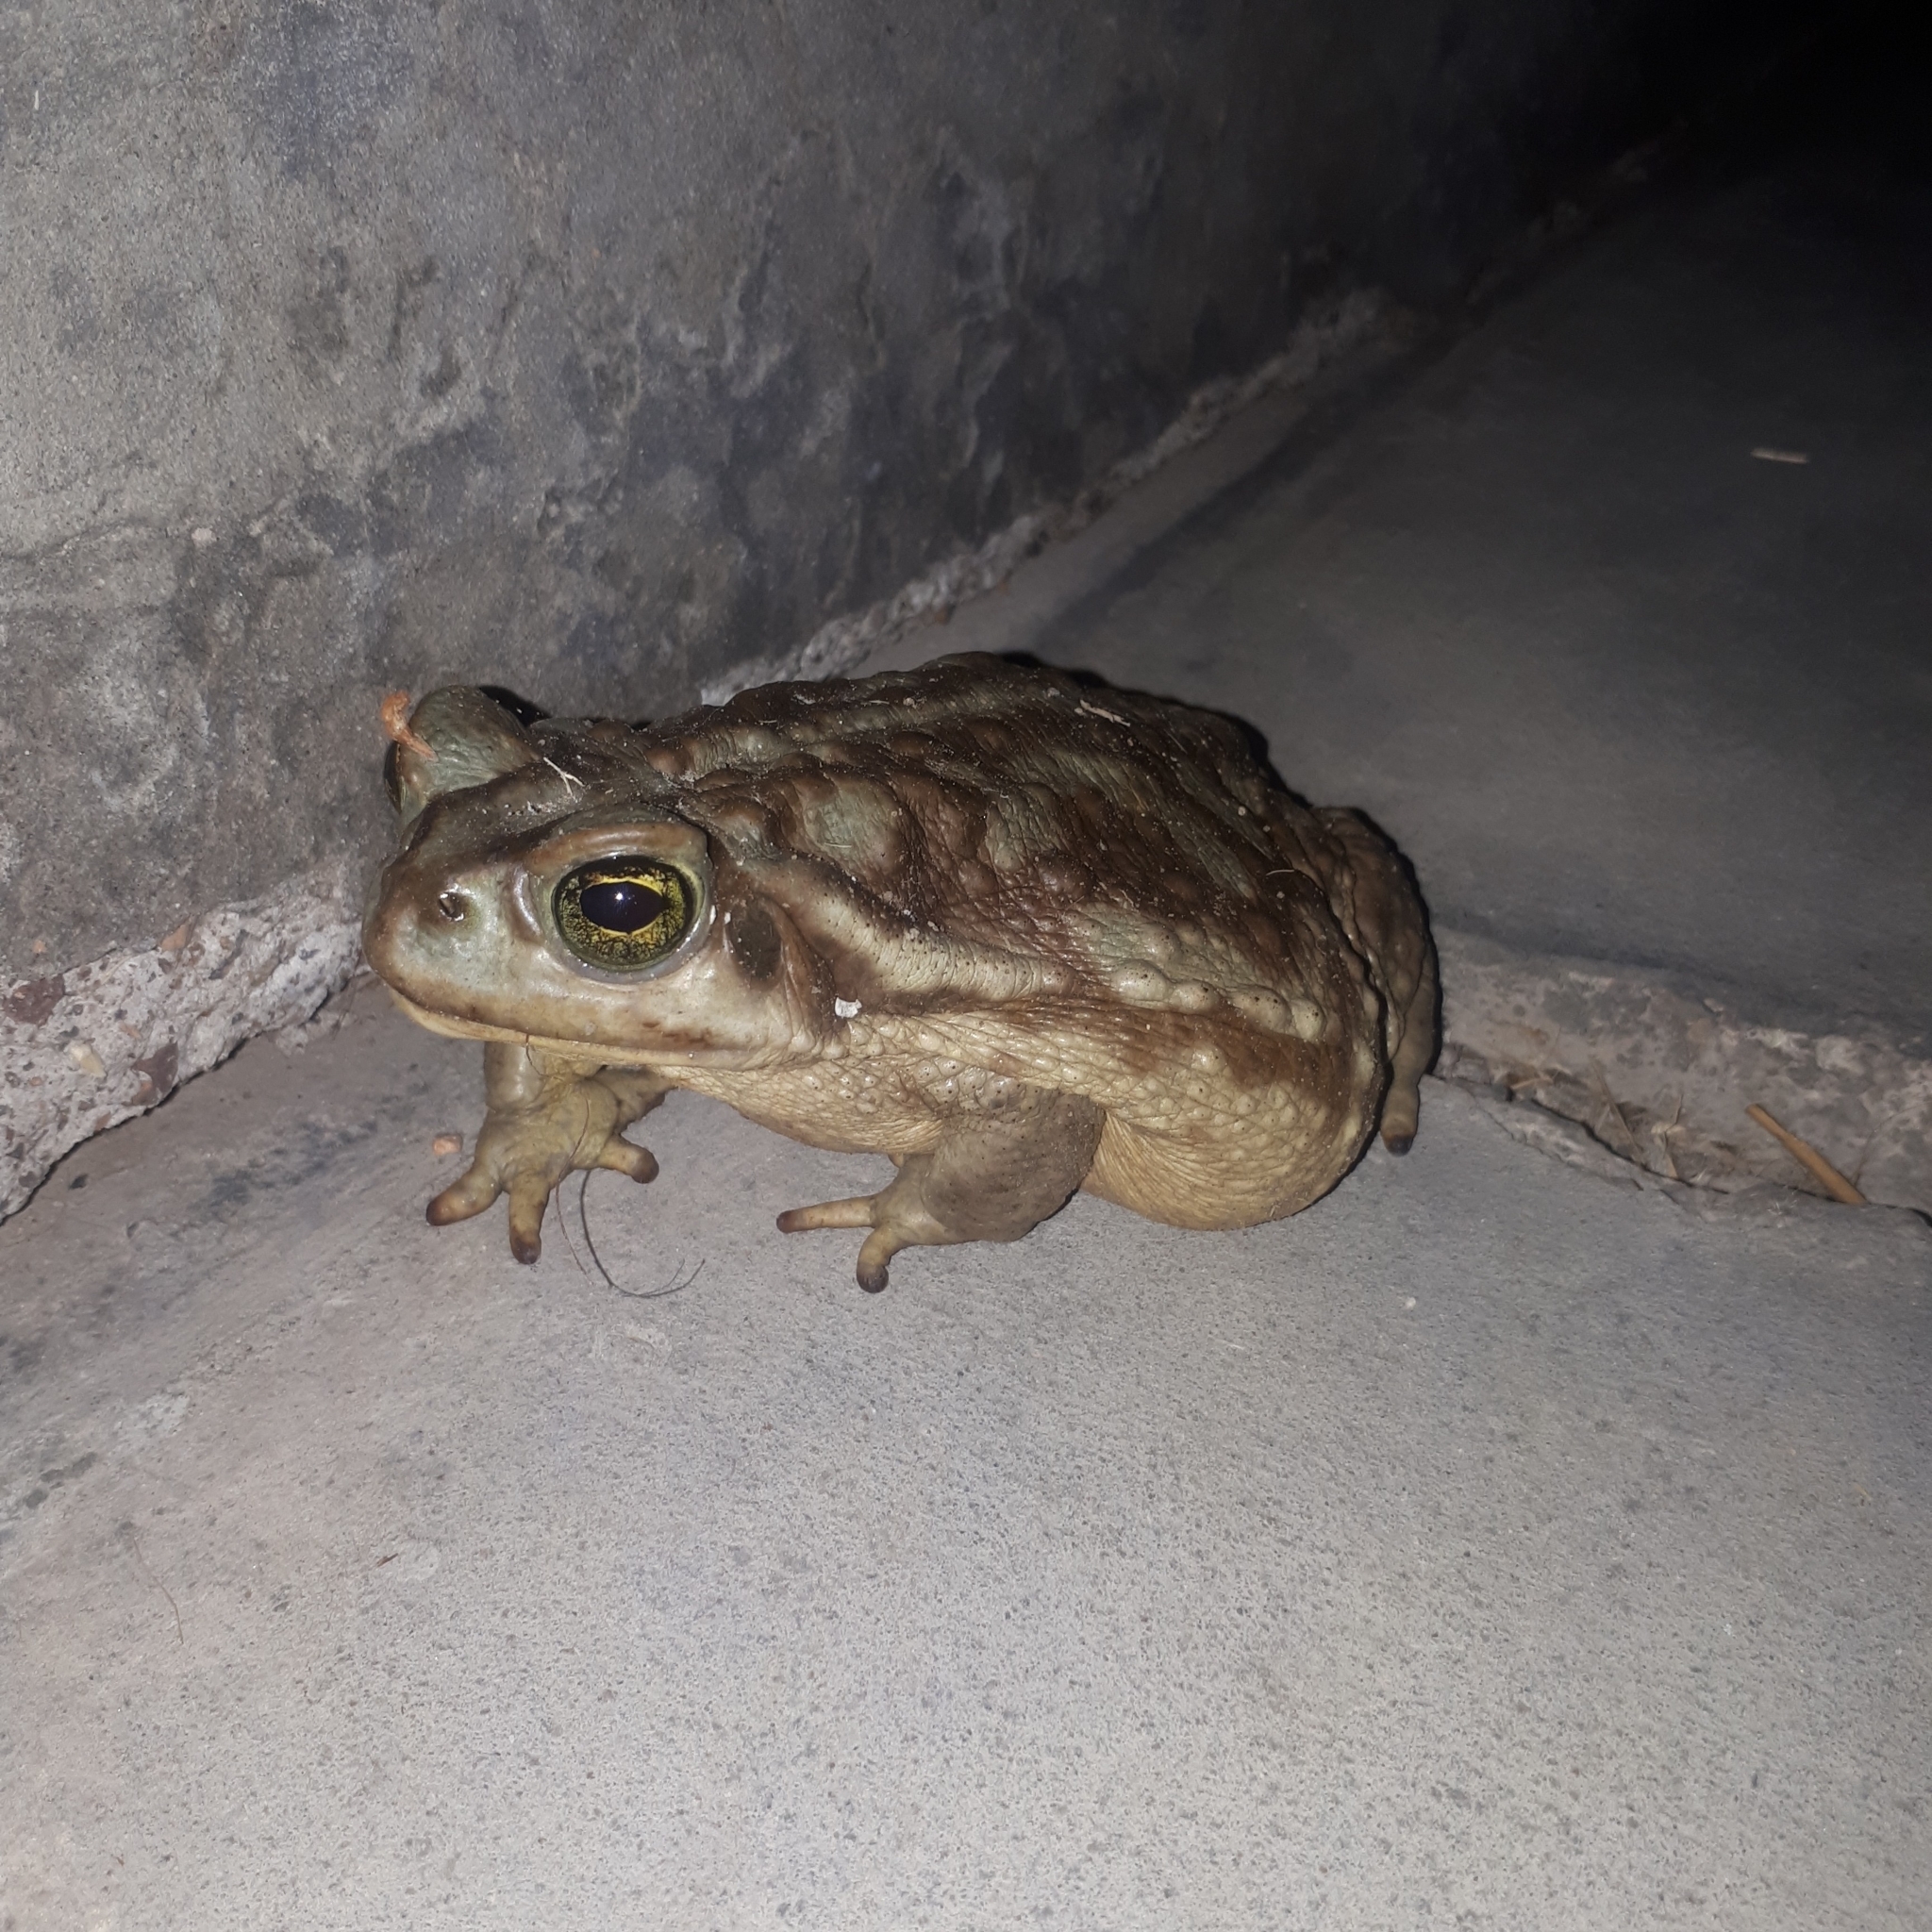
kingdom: Animalia
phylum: Chordata
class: Amphibia
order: Anura
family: Bufonidae
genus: Rhinella
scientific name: Rhinella arenarum
